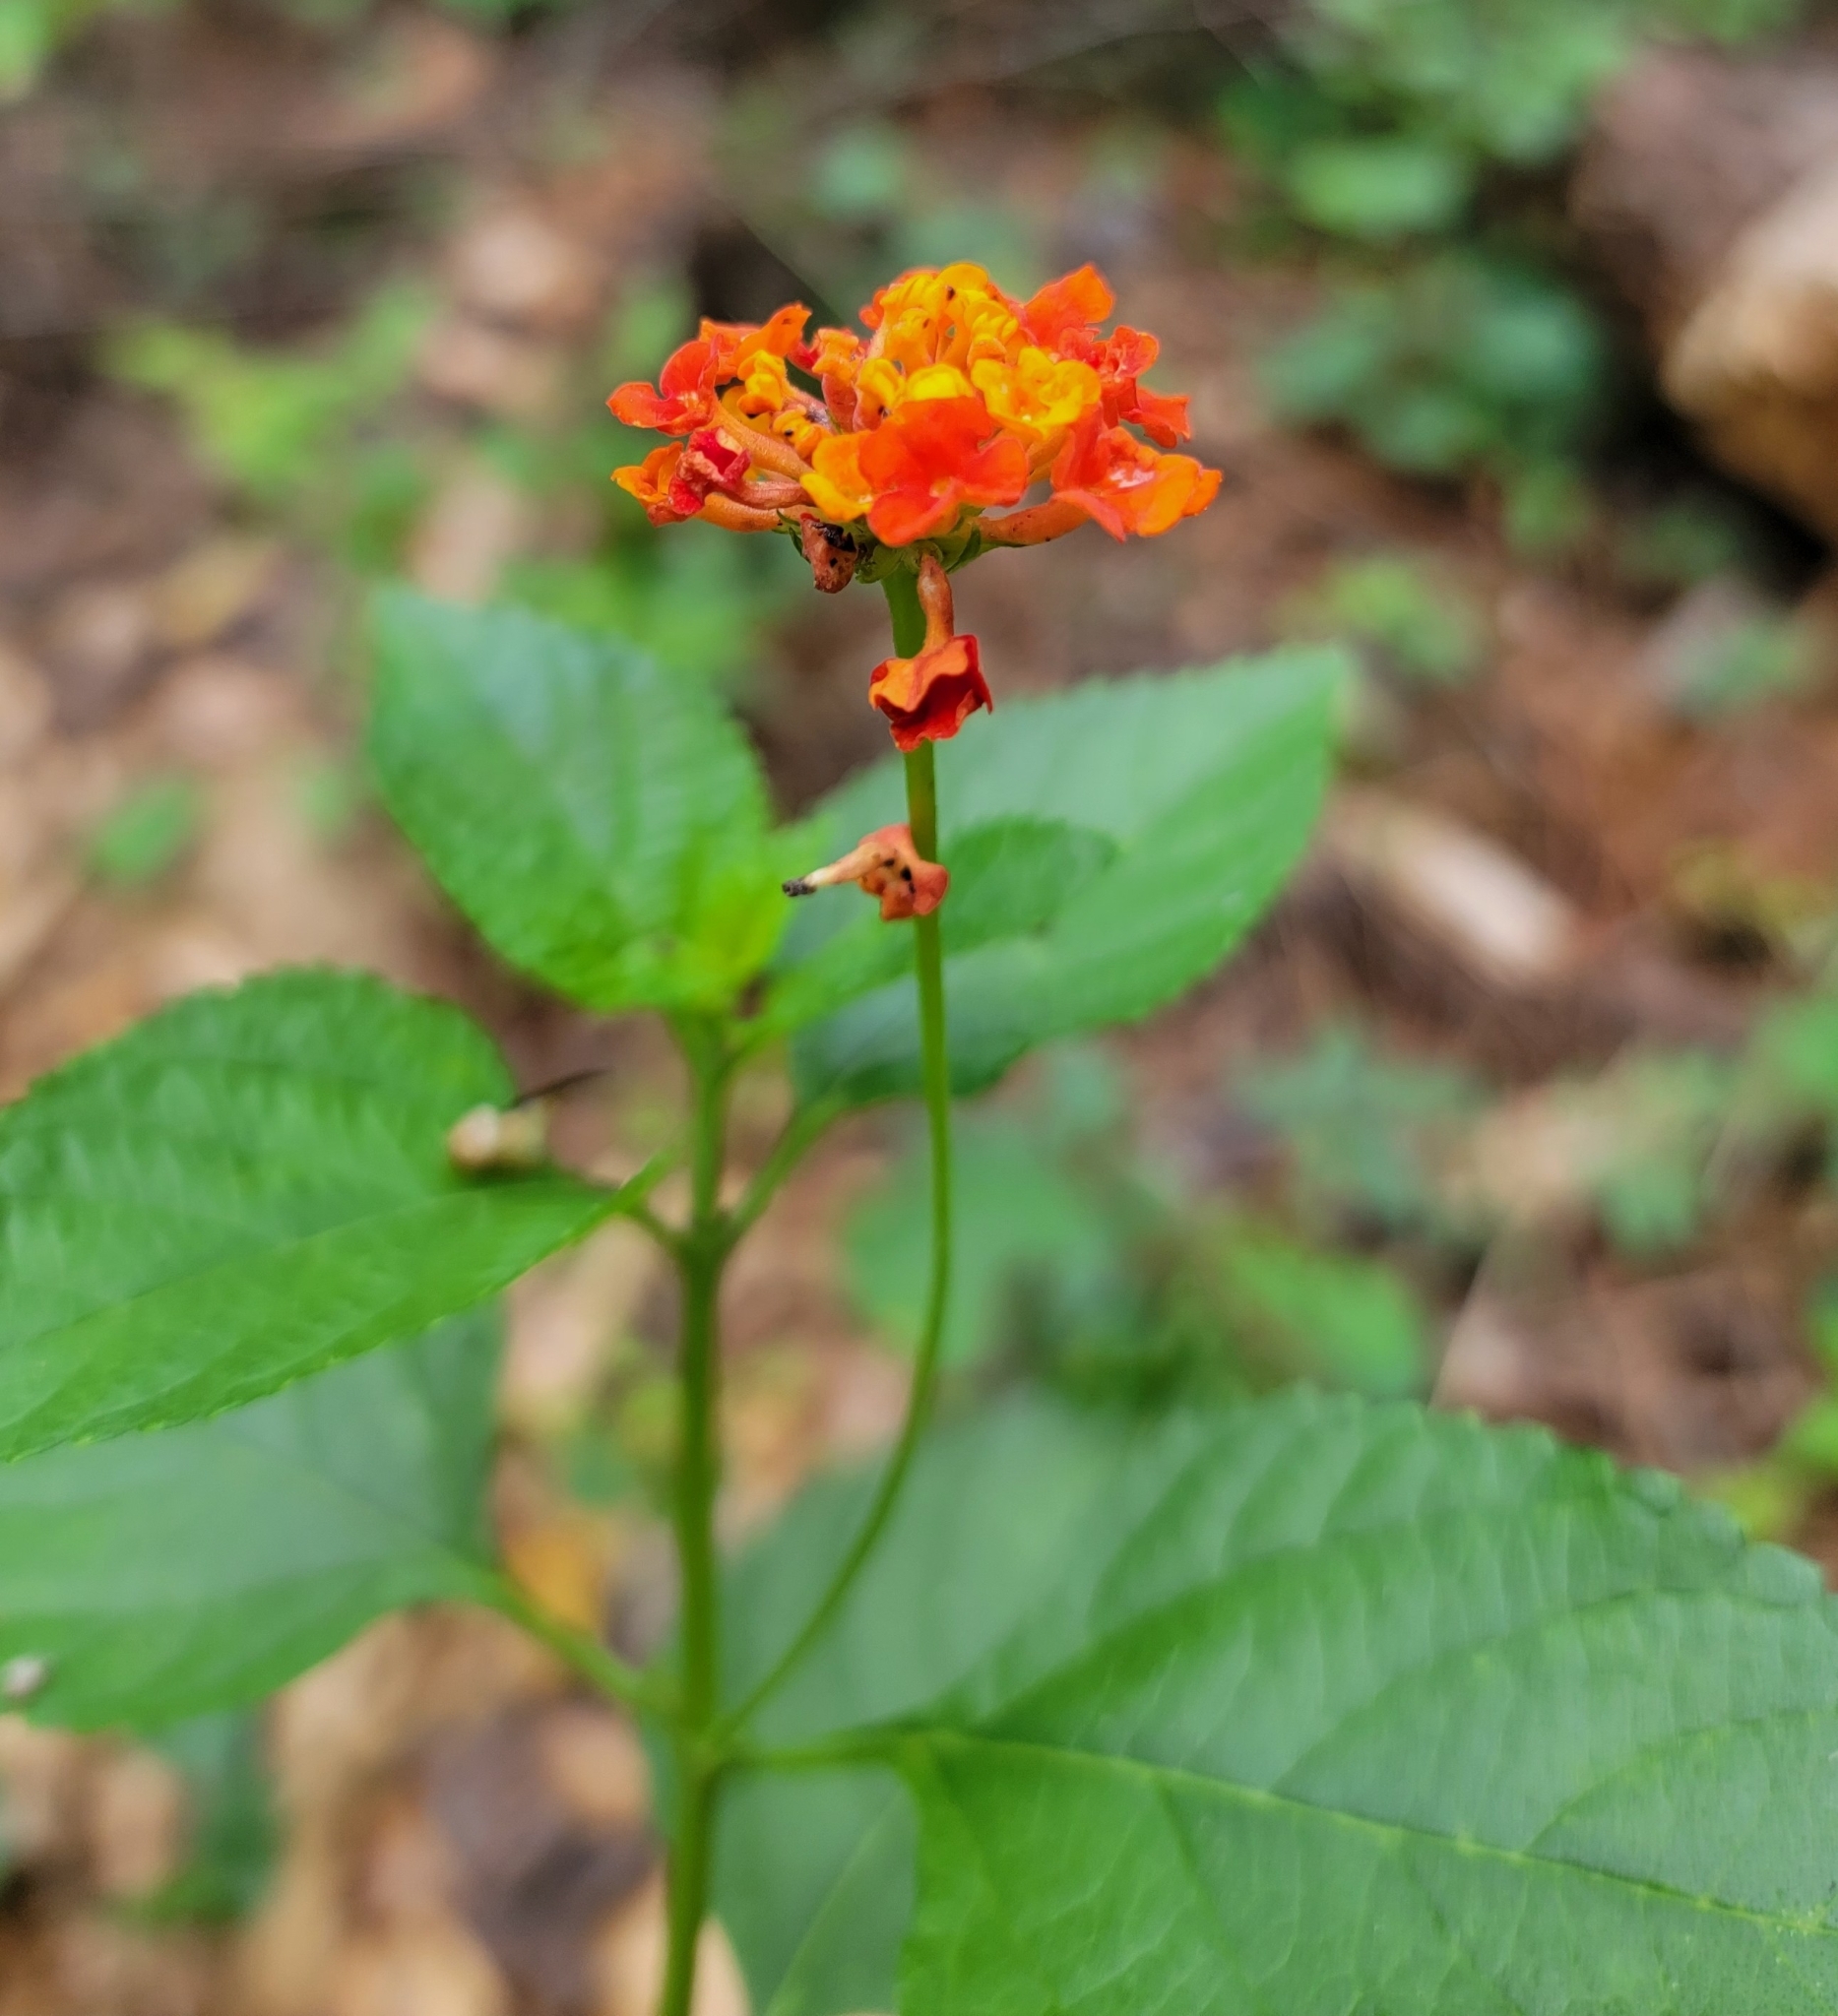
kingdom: Plantae
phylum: Tracheophyta
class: Magnoliopsida
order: Lamiales
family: Verbenaceae
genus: Lantana
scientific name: Lantana camara
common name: Lantana
